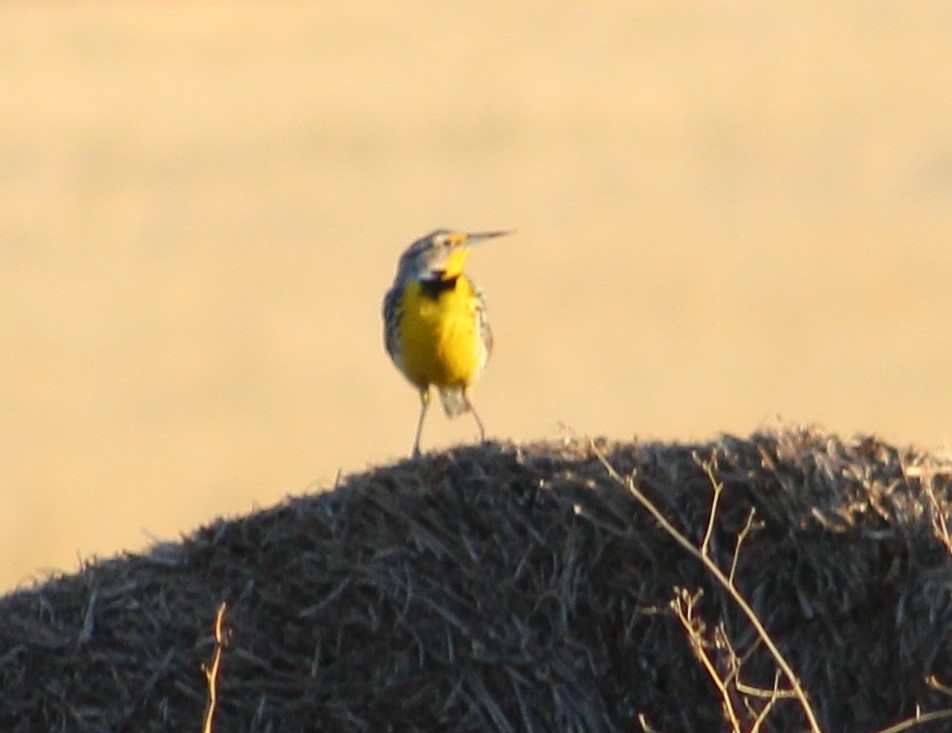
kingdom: Animalia
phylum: Chordata
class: Aves
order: Passeriformes
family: Icteridae
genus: Sturnella
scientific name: Sturnella neglecta
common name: Western meadowlark
